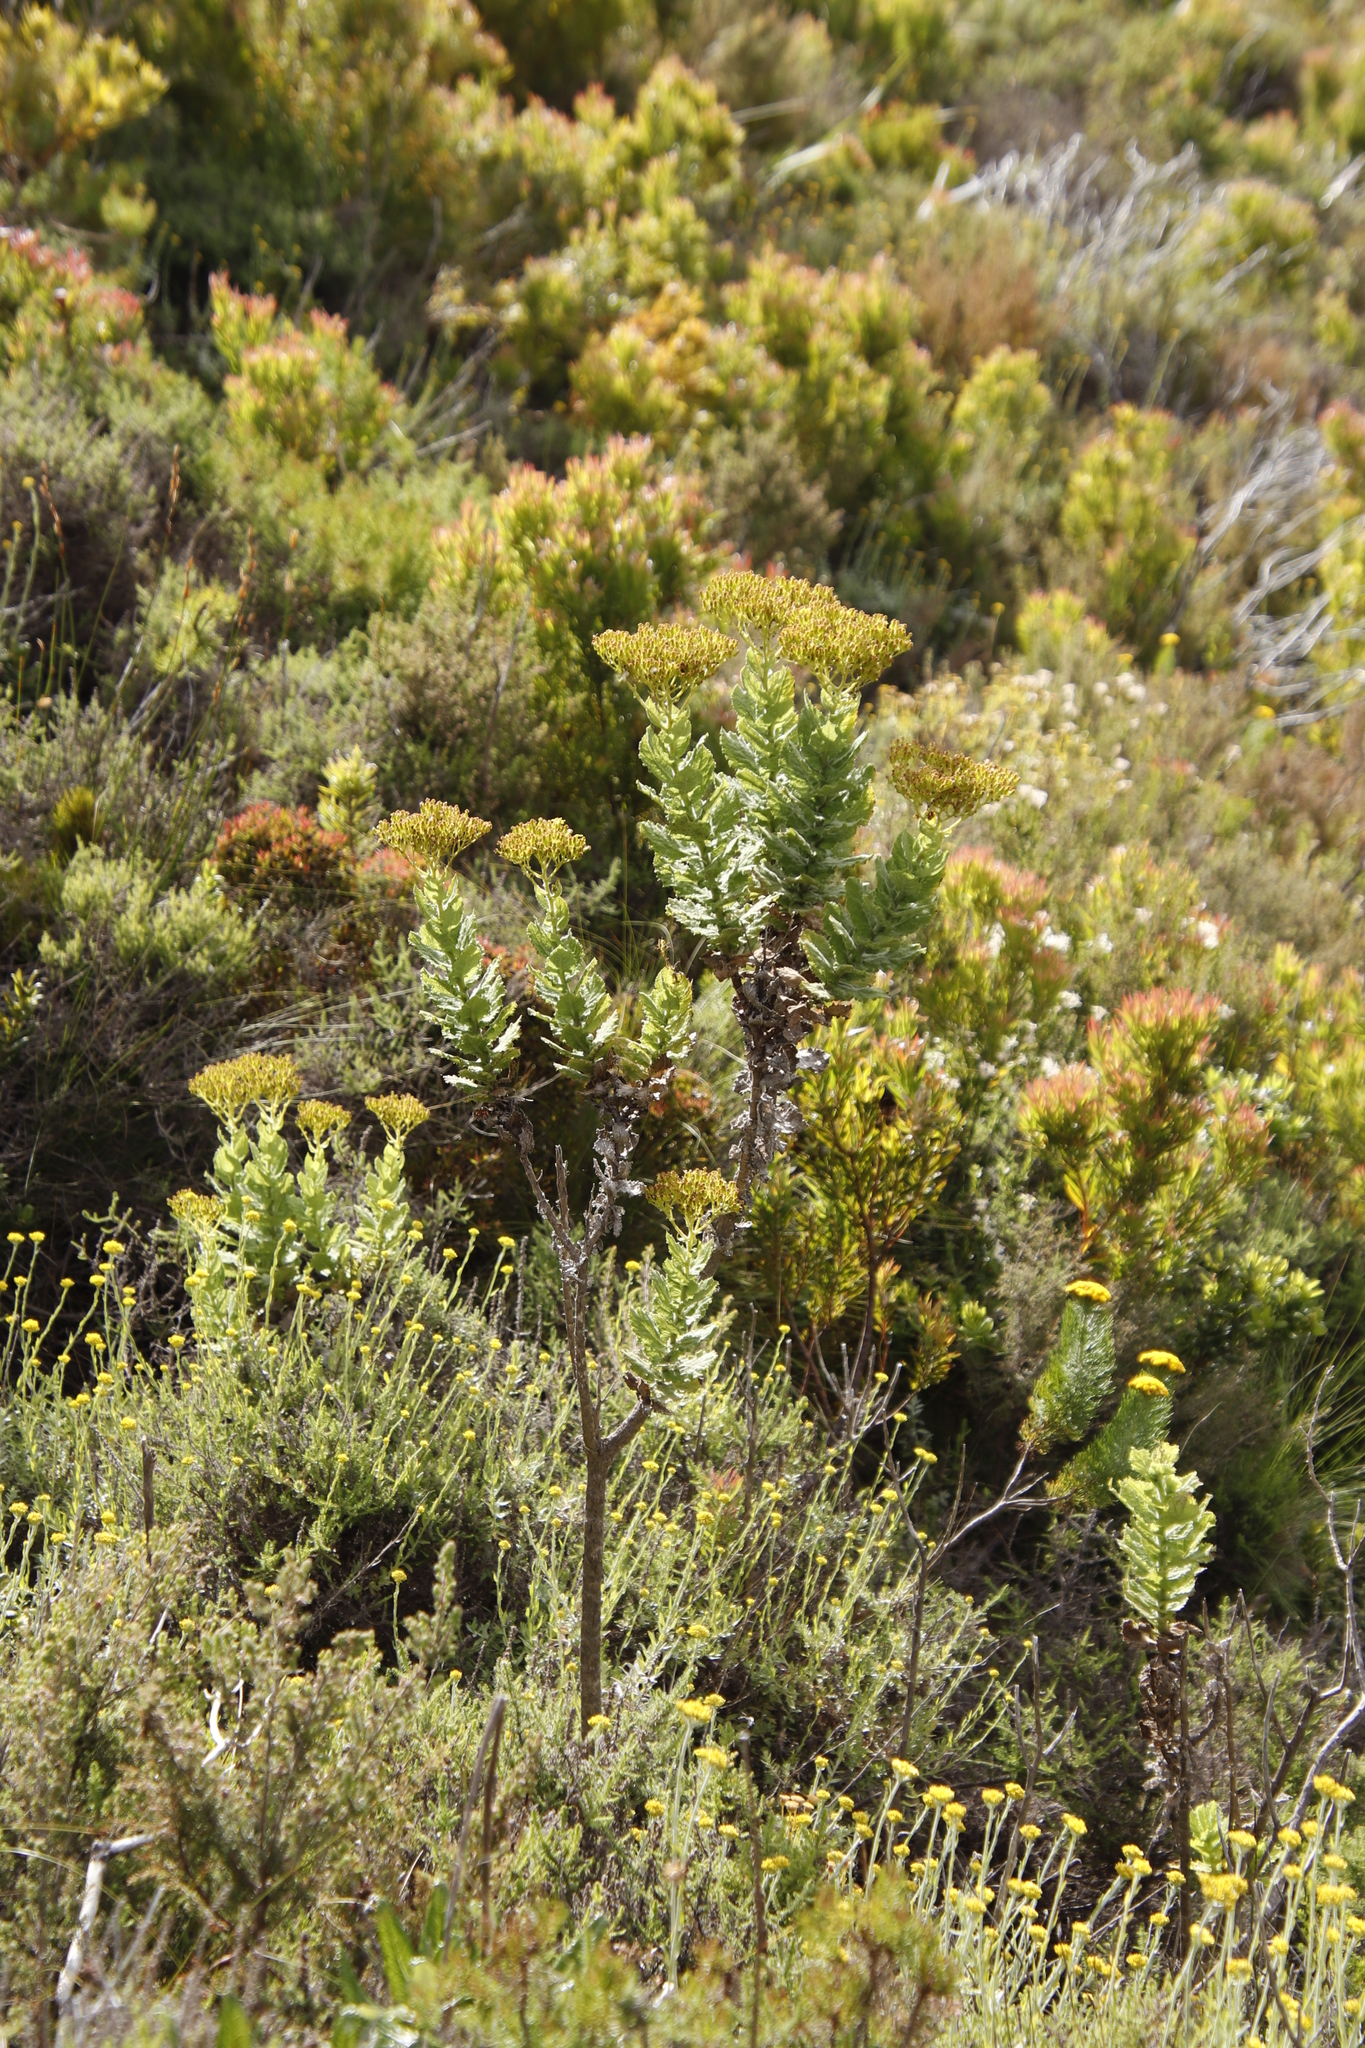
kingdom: Plantae
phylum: Tracheophyta
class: Magnoliopsida
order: Asterales
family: Asteraceae
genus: Senecio
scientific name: Senecio rigidus
